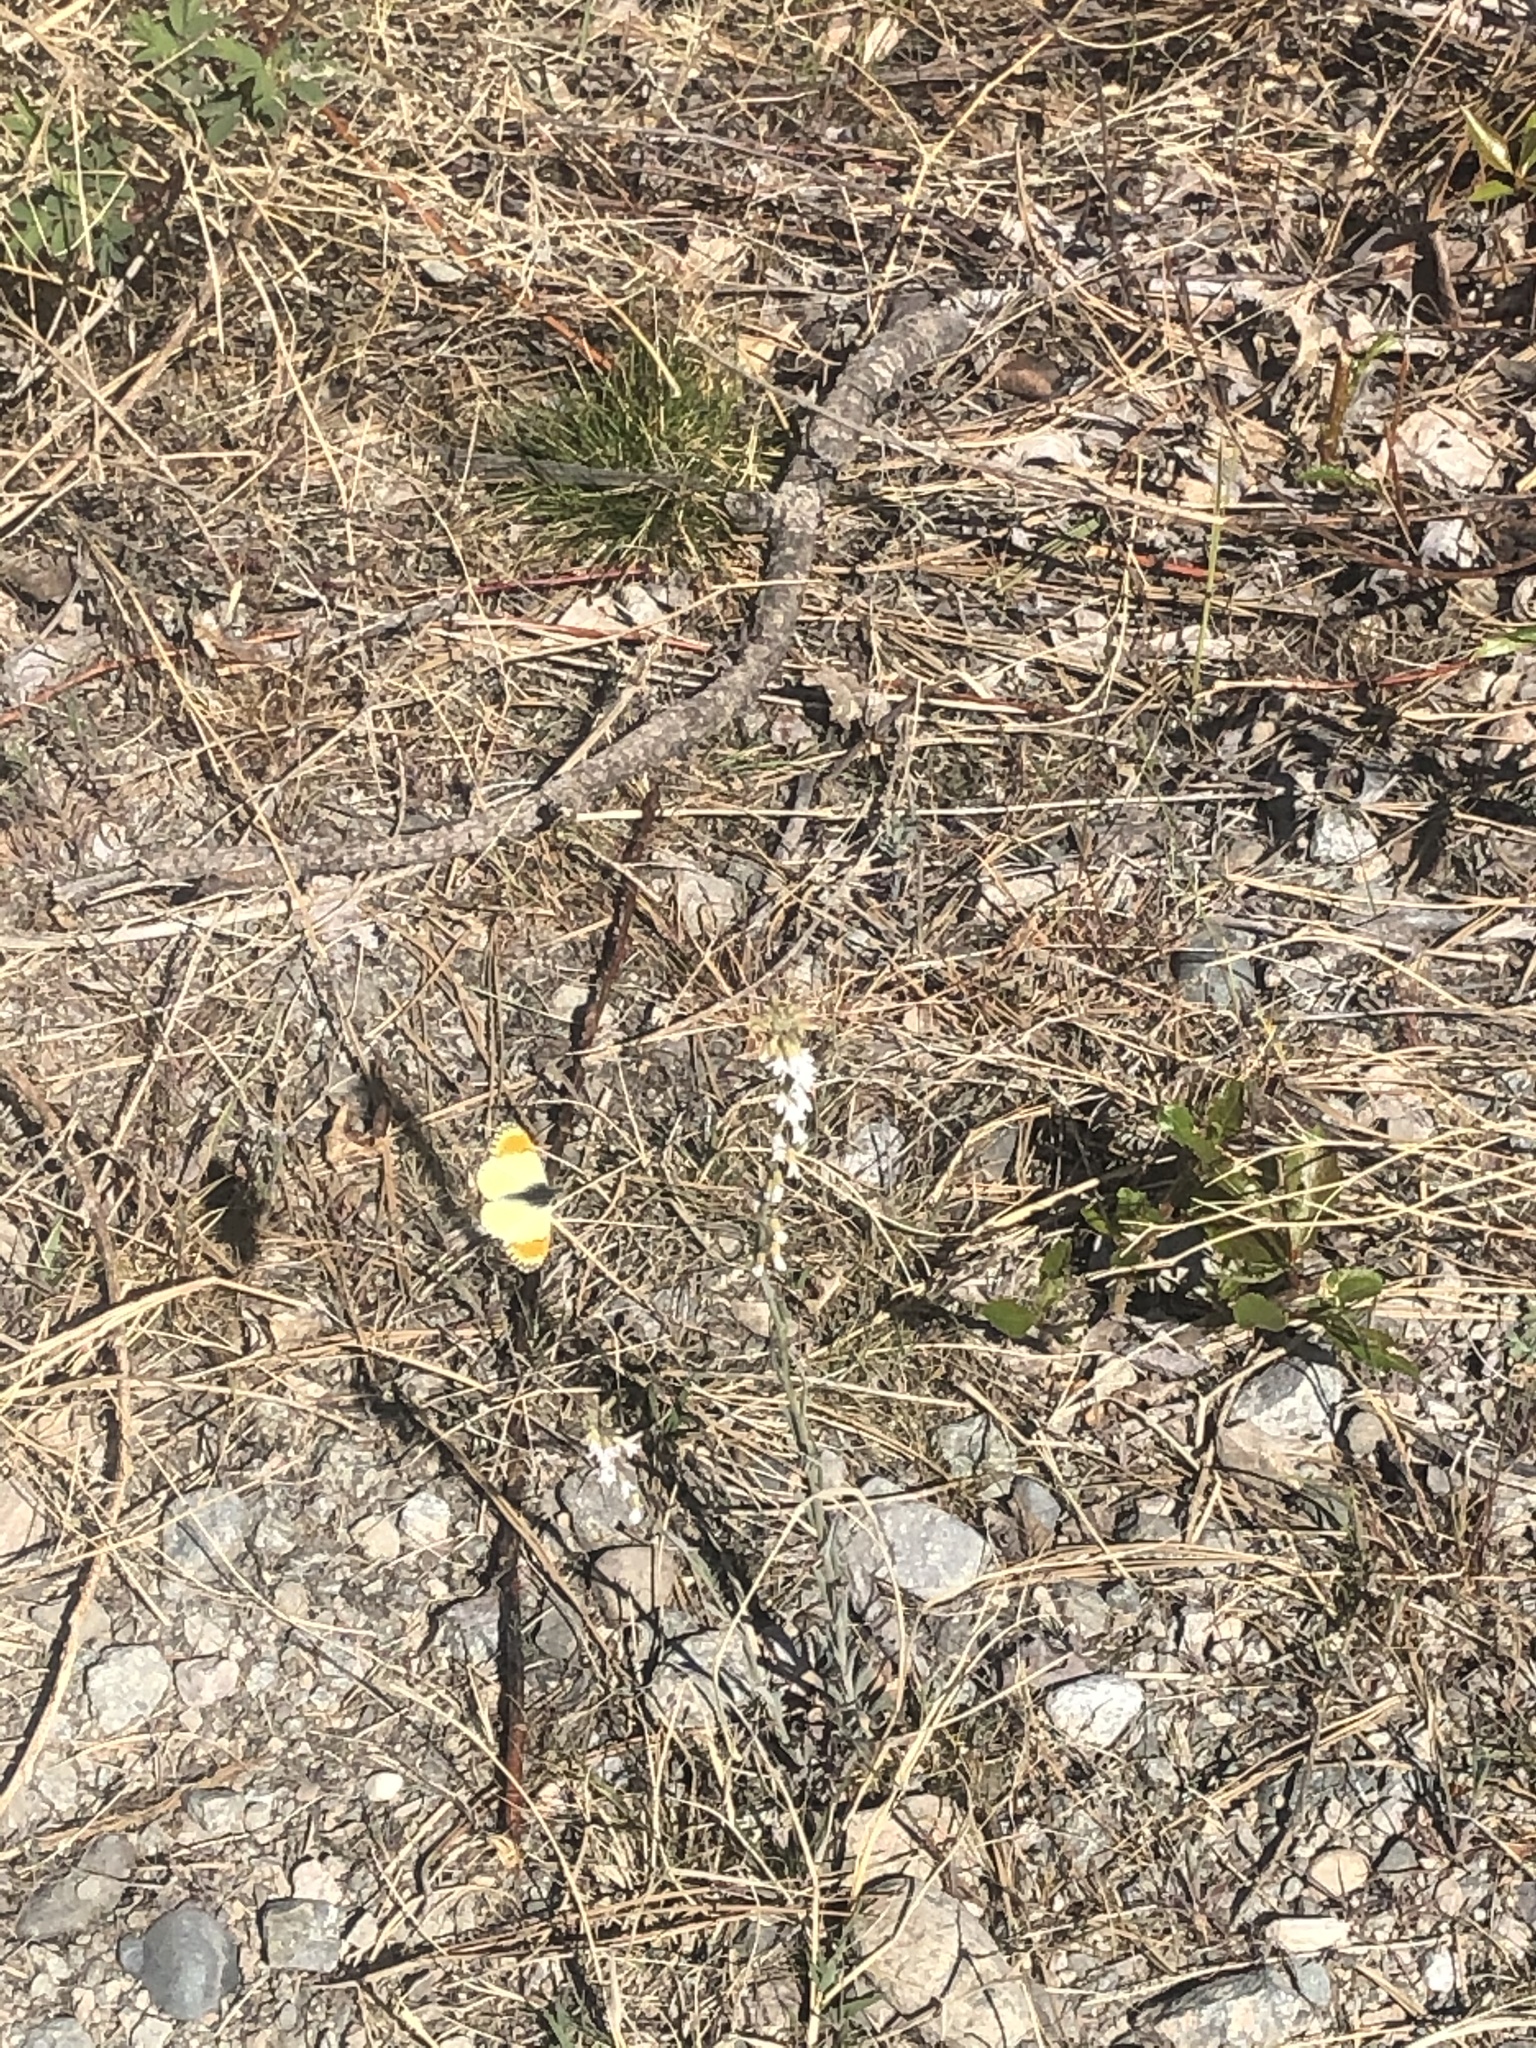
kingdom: Animalia
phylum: Arthropoda
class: Insecta
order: Lepidoptera
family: Pieridae
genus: Anthocharis
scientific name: Anthocharis julia
